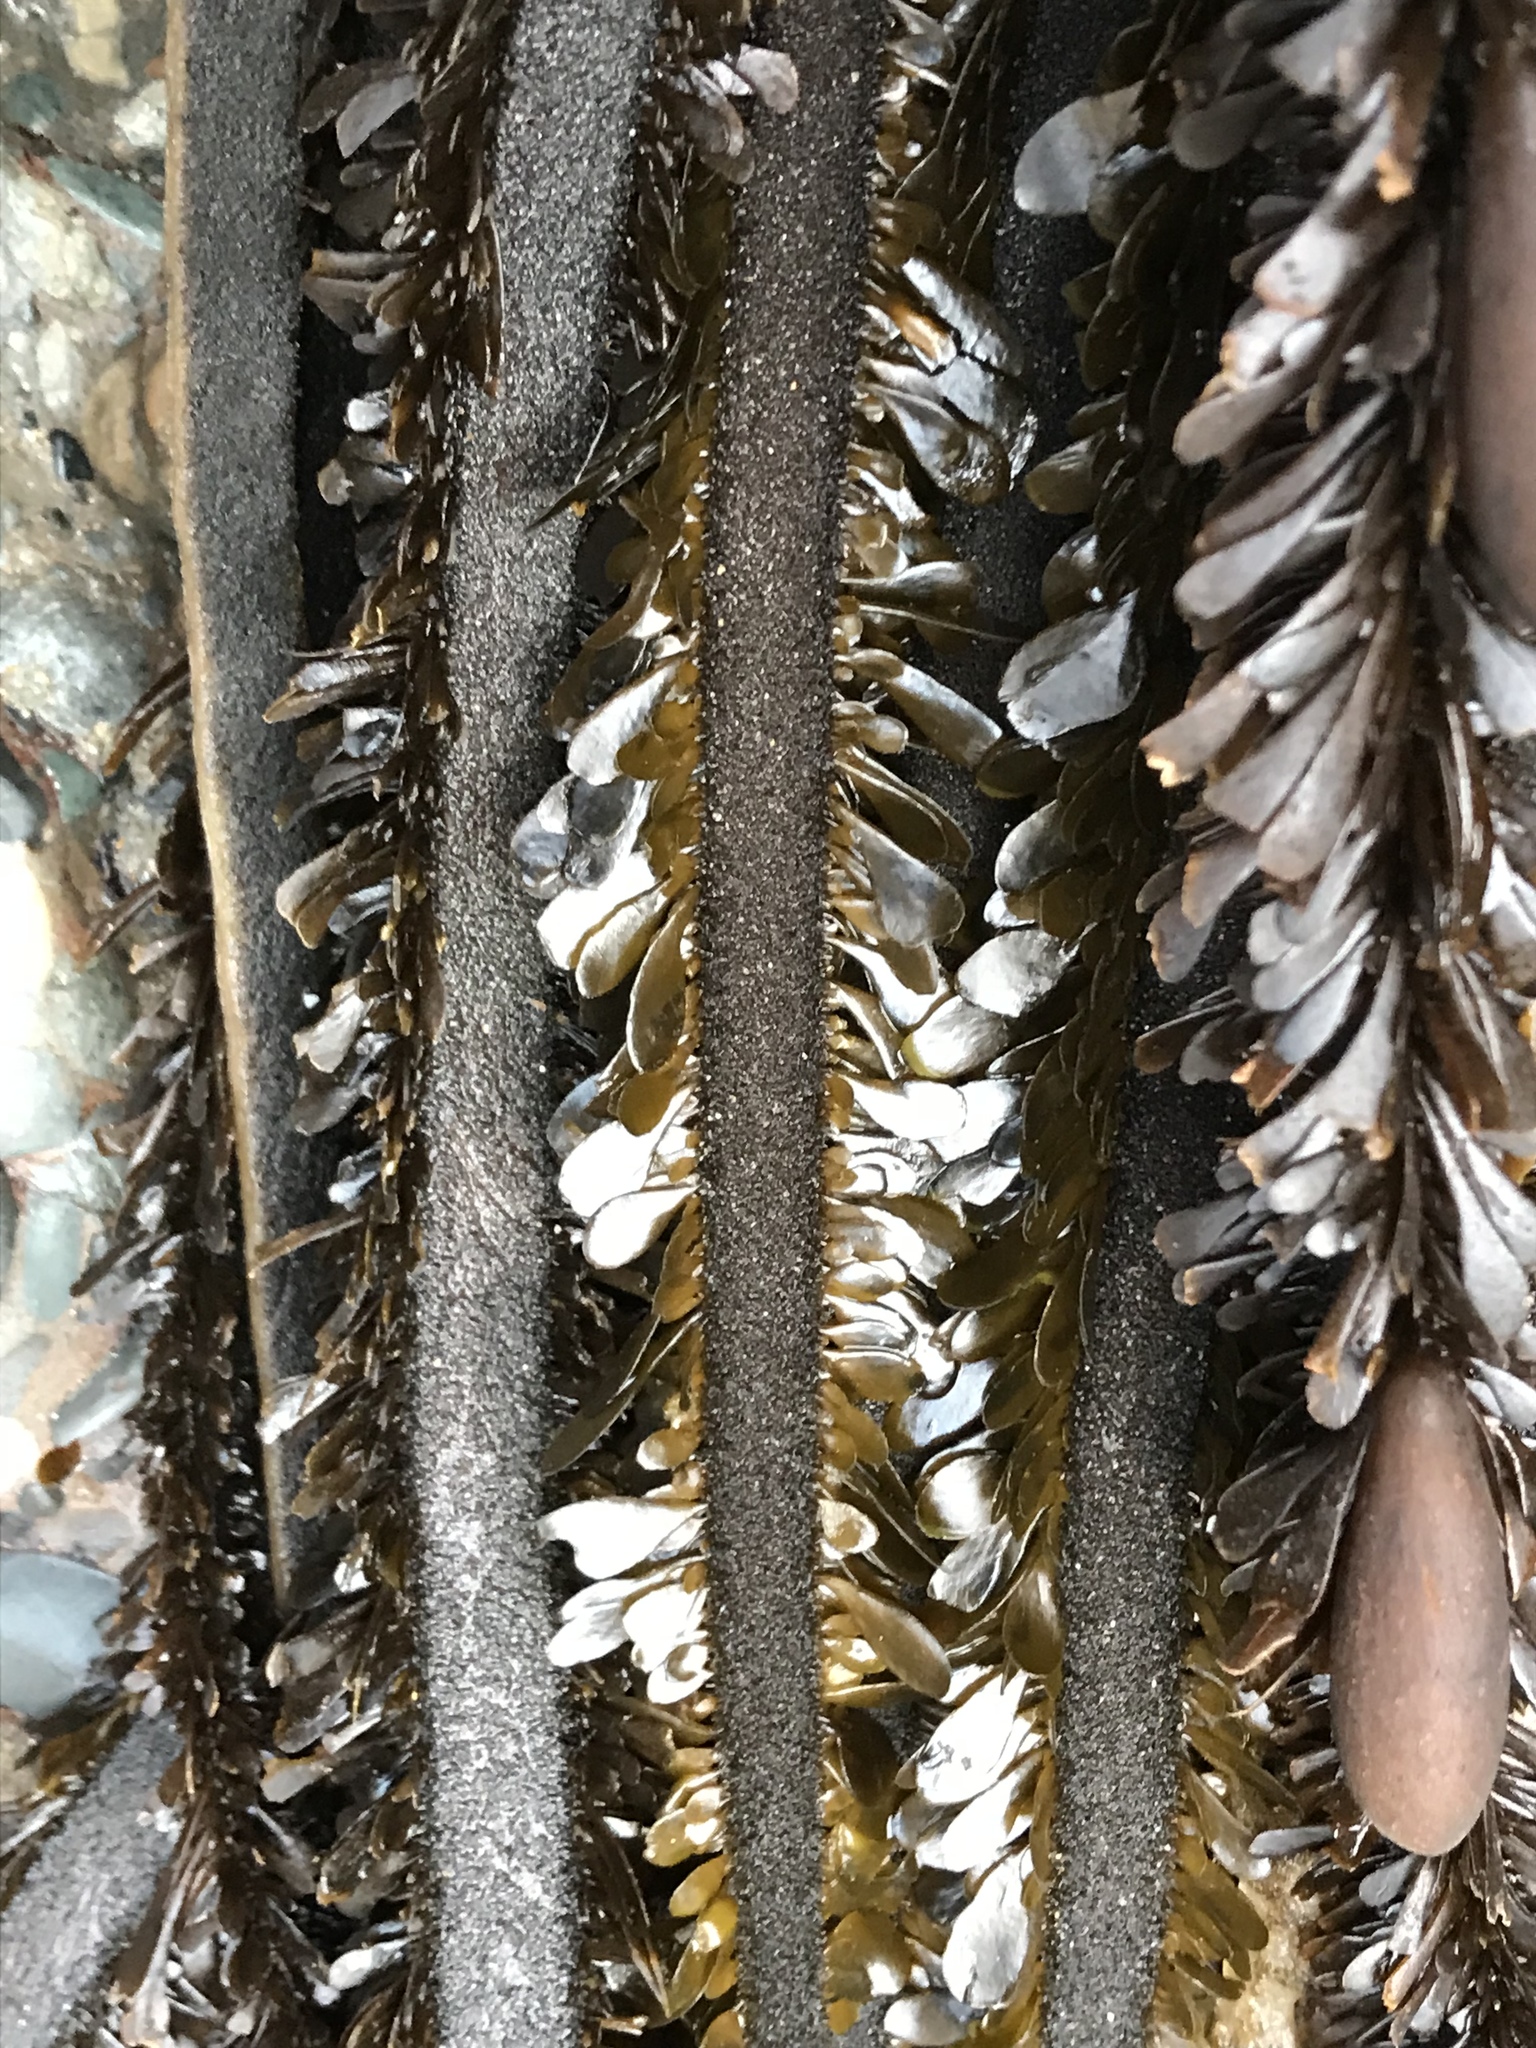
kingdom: Chromista
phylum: Ochrophyta
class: Phaeophyceae
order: Laminariales
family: Lessoniaceae
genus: Egregia
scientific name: Egregia menziesii
